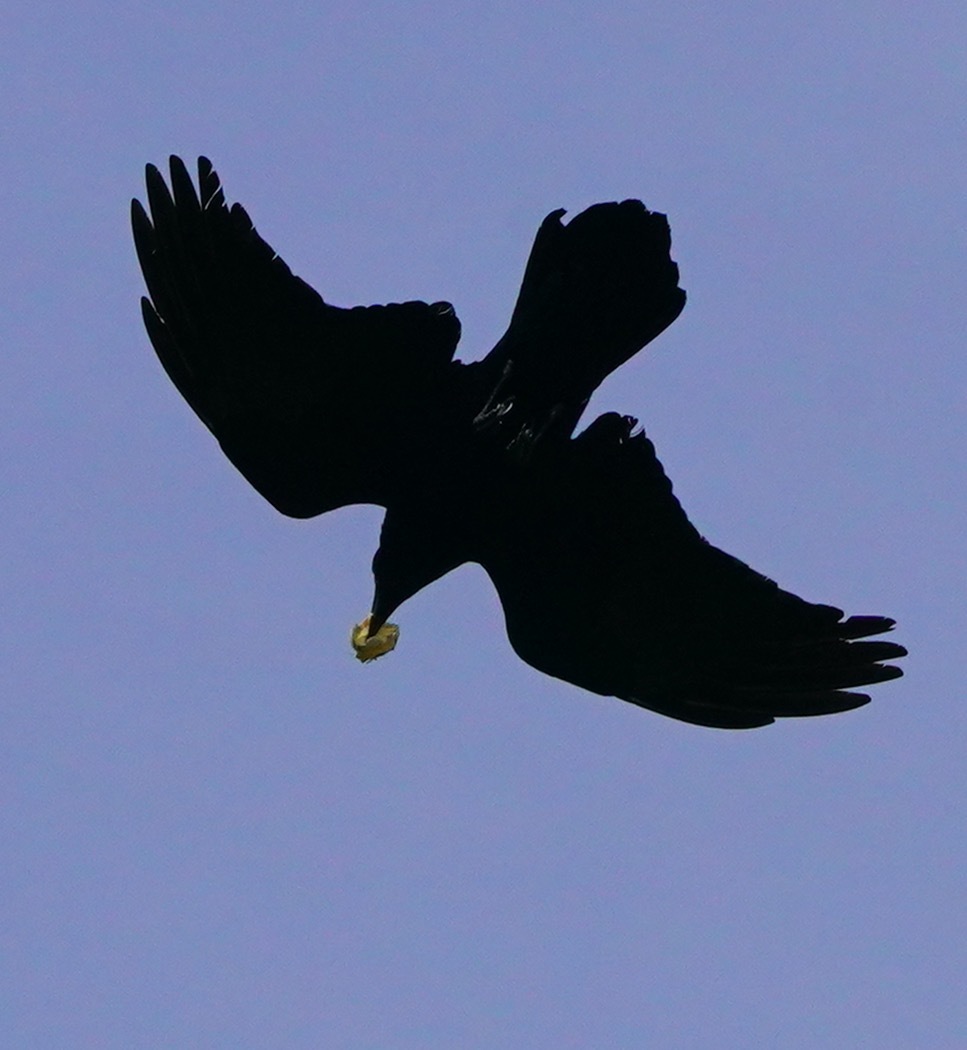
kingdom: Animalia
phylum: Chordata
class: Aves
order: Passeriformes
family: Corvidae
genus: Corvus
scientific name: Corvus corax
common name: Common raven
